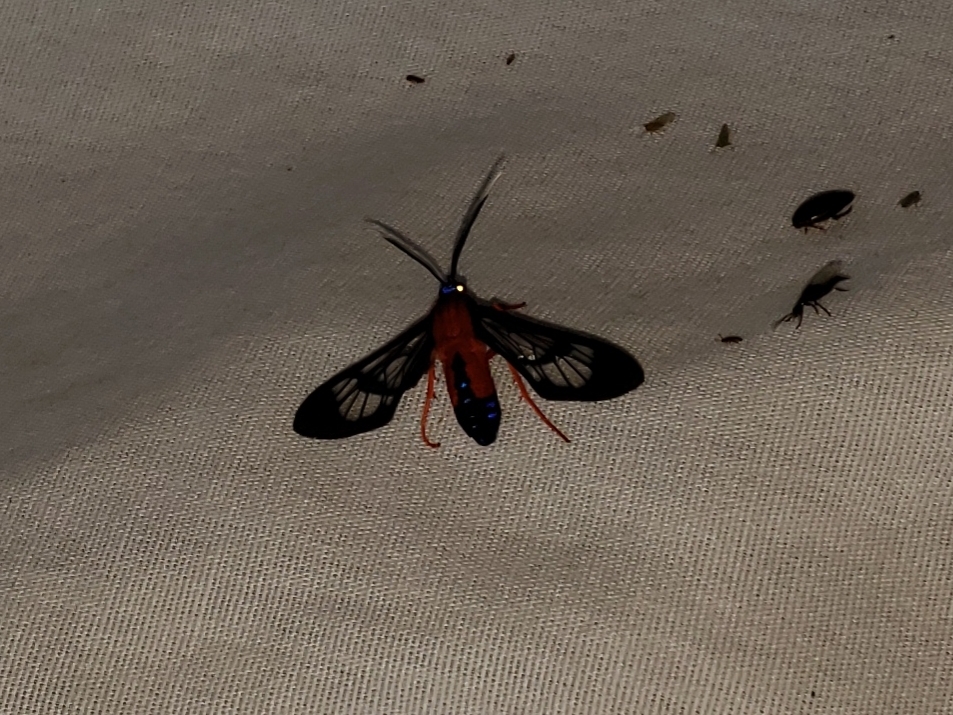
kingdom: Animalia
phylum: Arthropoda
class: Insecta
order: Lepidoptera
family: Erebidae
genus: Cosmosoma
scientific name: Cosmosoma myrodora
